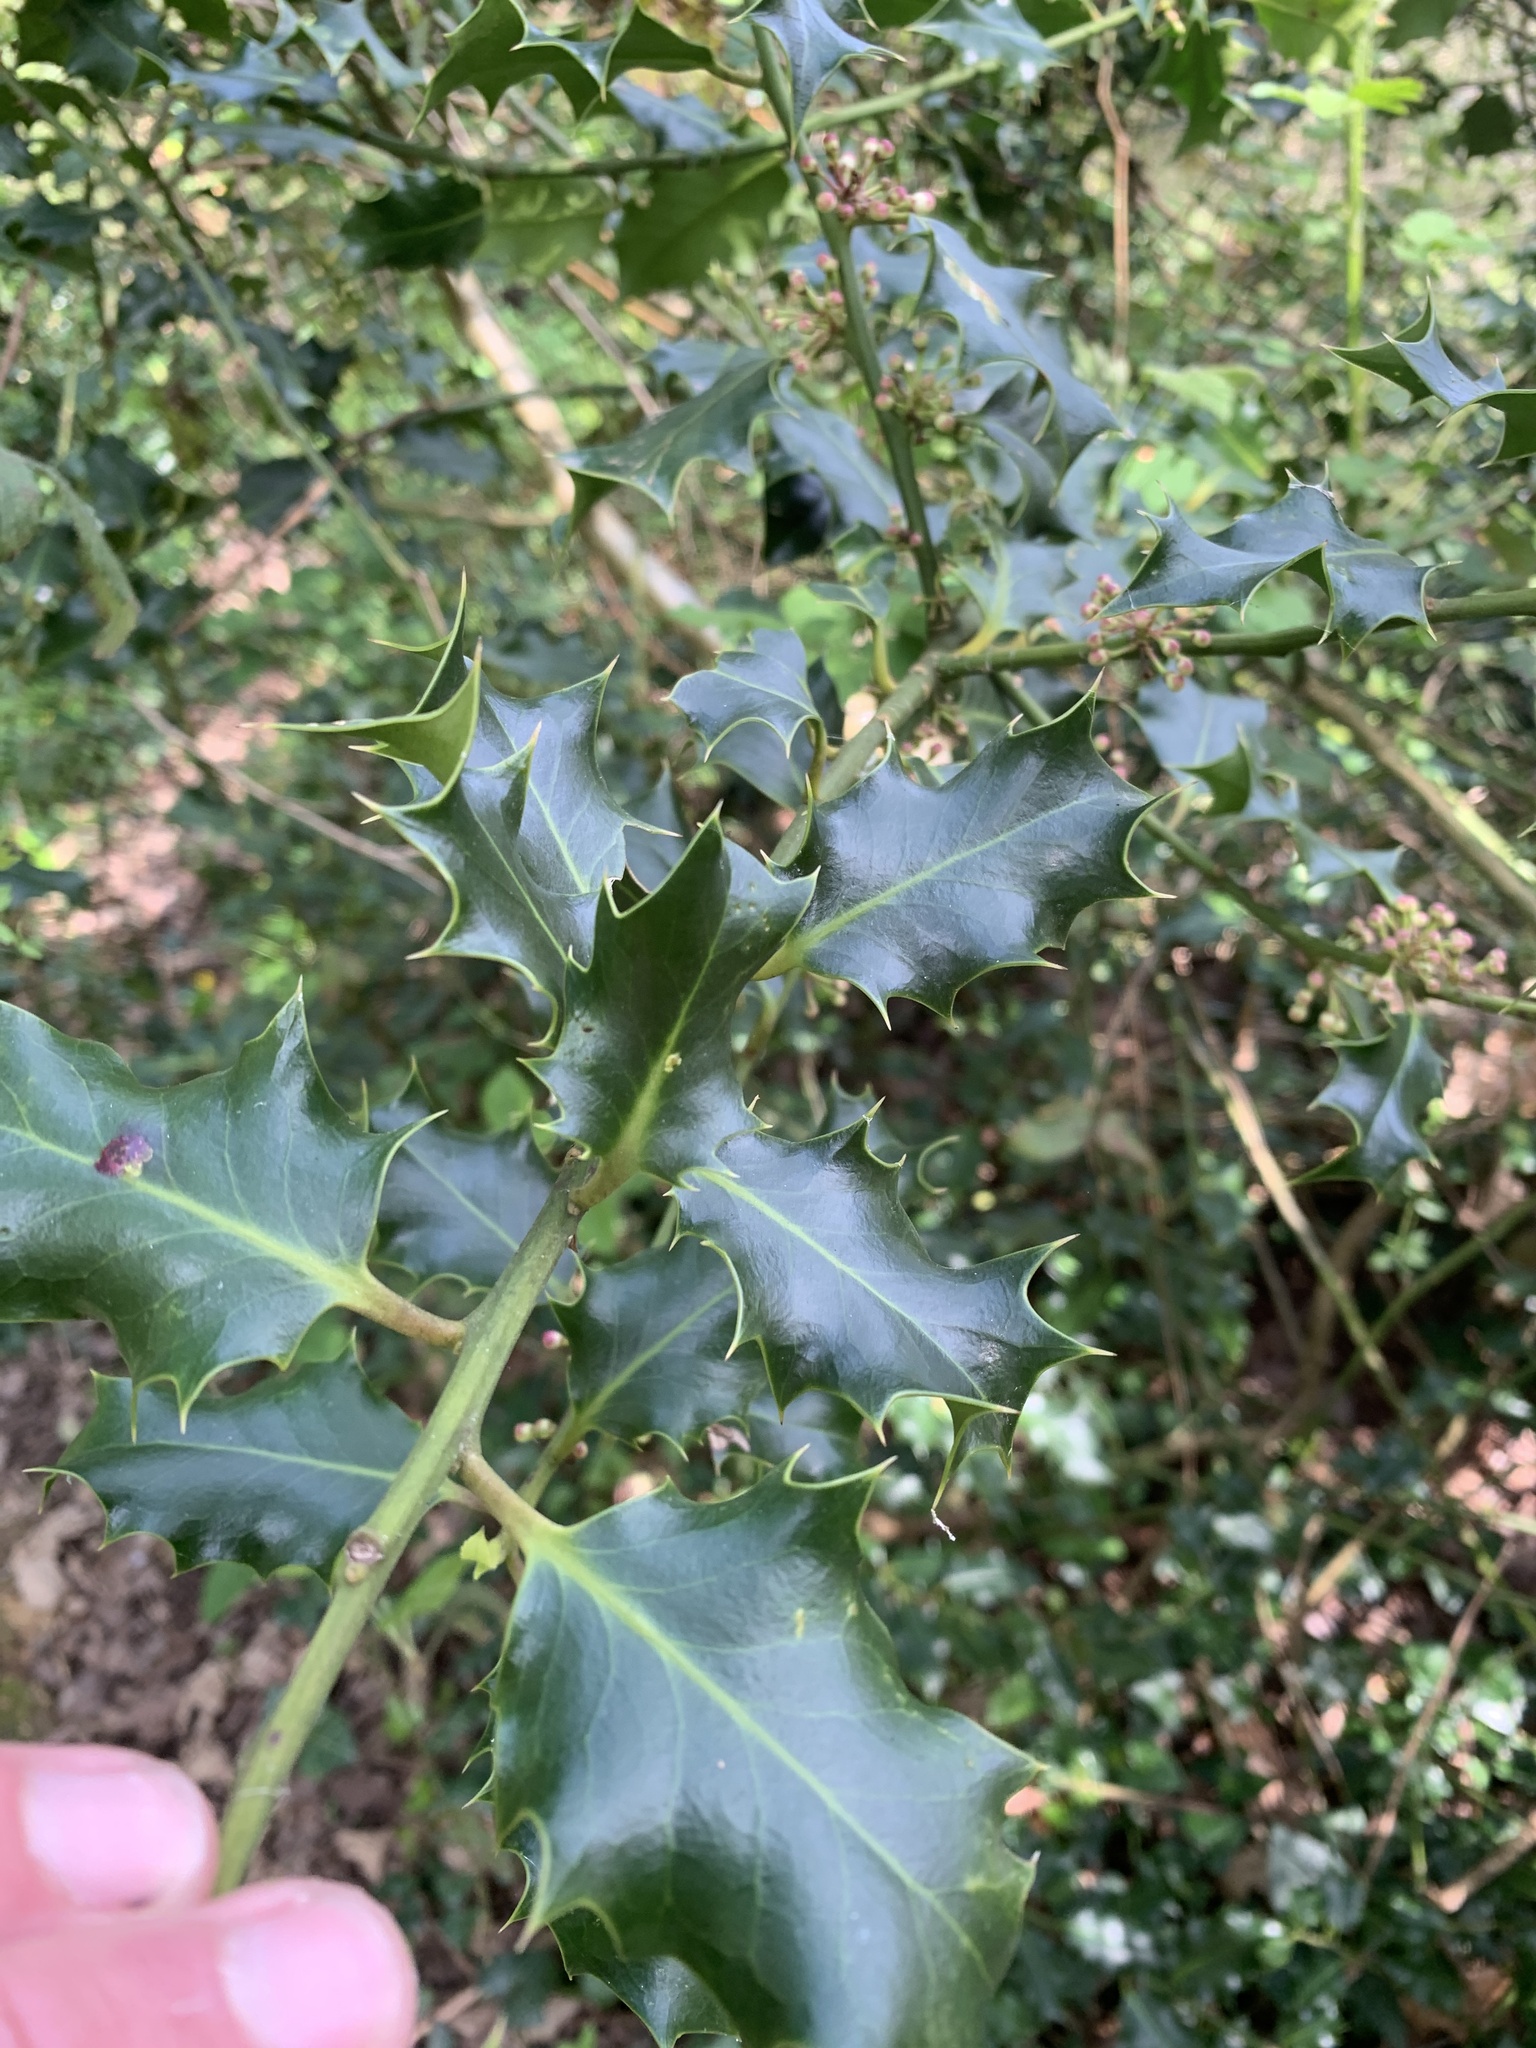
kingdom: Plantae
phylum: Tracheophyta
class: Magnoliopsida
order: Aquifoliales
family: Aquifoliaceae
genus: Ilex
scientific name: Ilex aquifolium
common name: English holly
